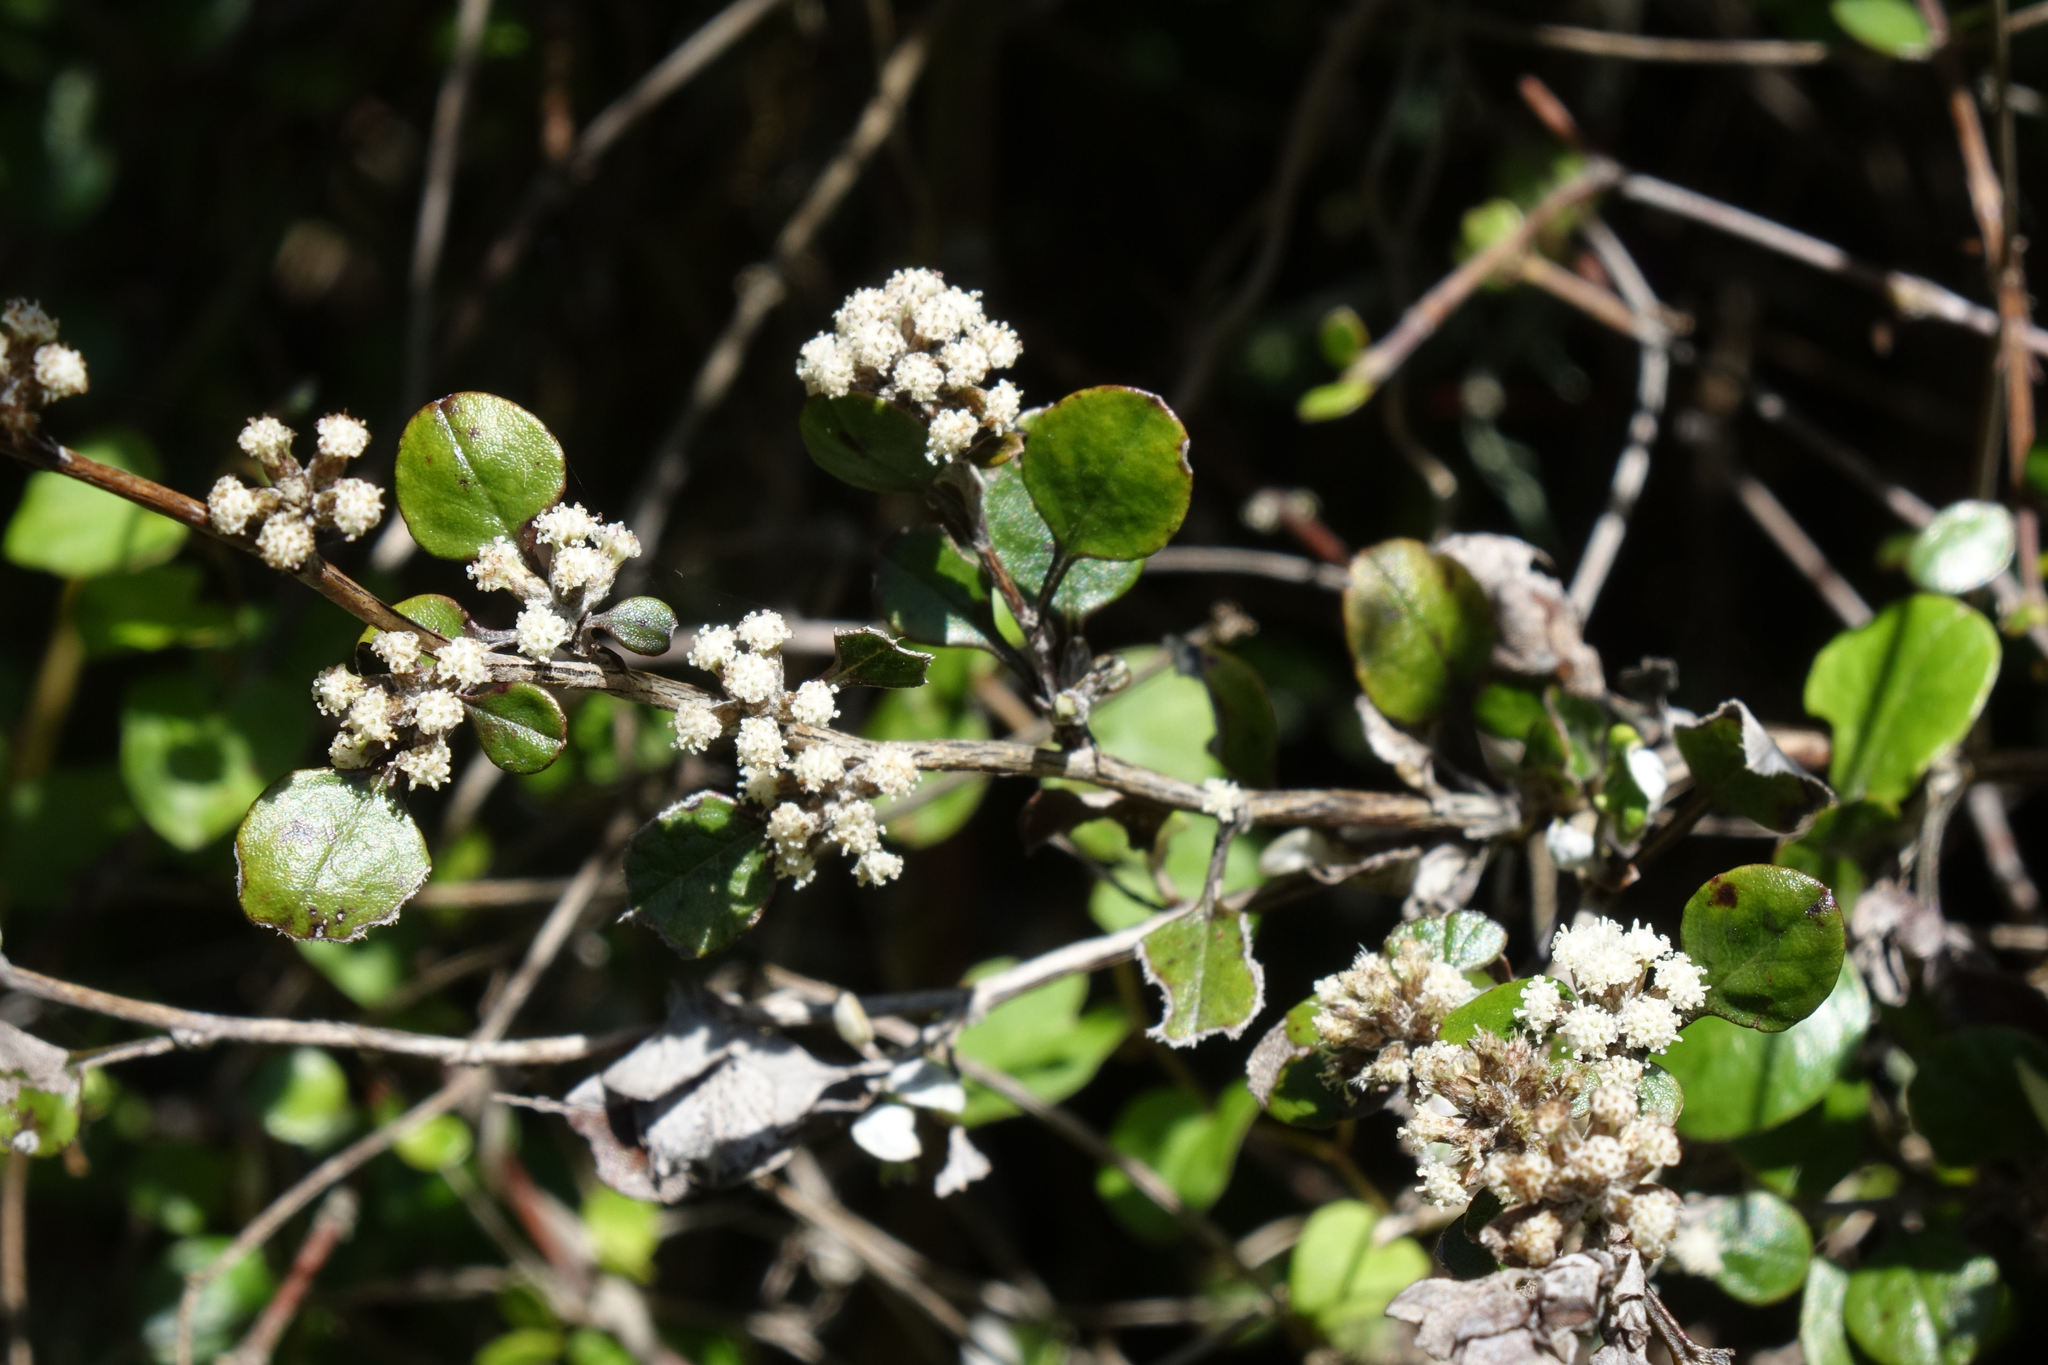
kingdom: Plantae
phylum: Tracheophyta
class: Magnoliopsida
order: Asterales
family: Asteraceae
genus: Ozothamnus
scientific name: Ozothamnus glomeratus
